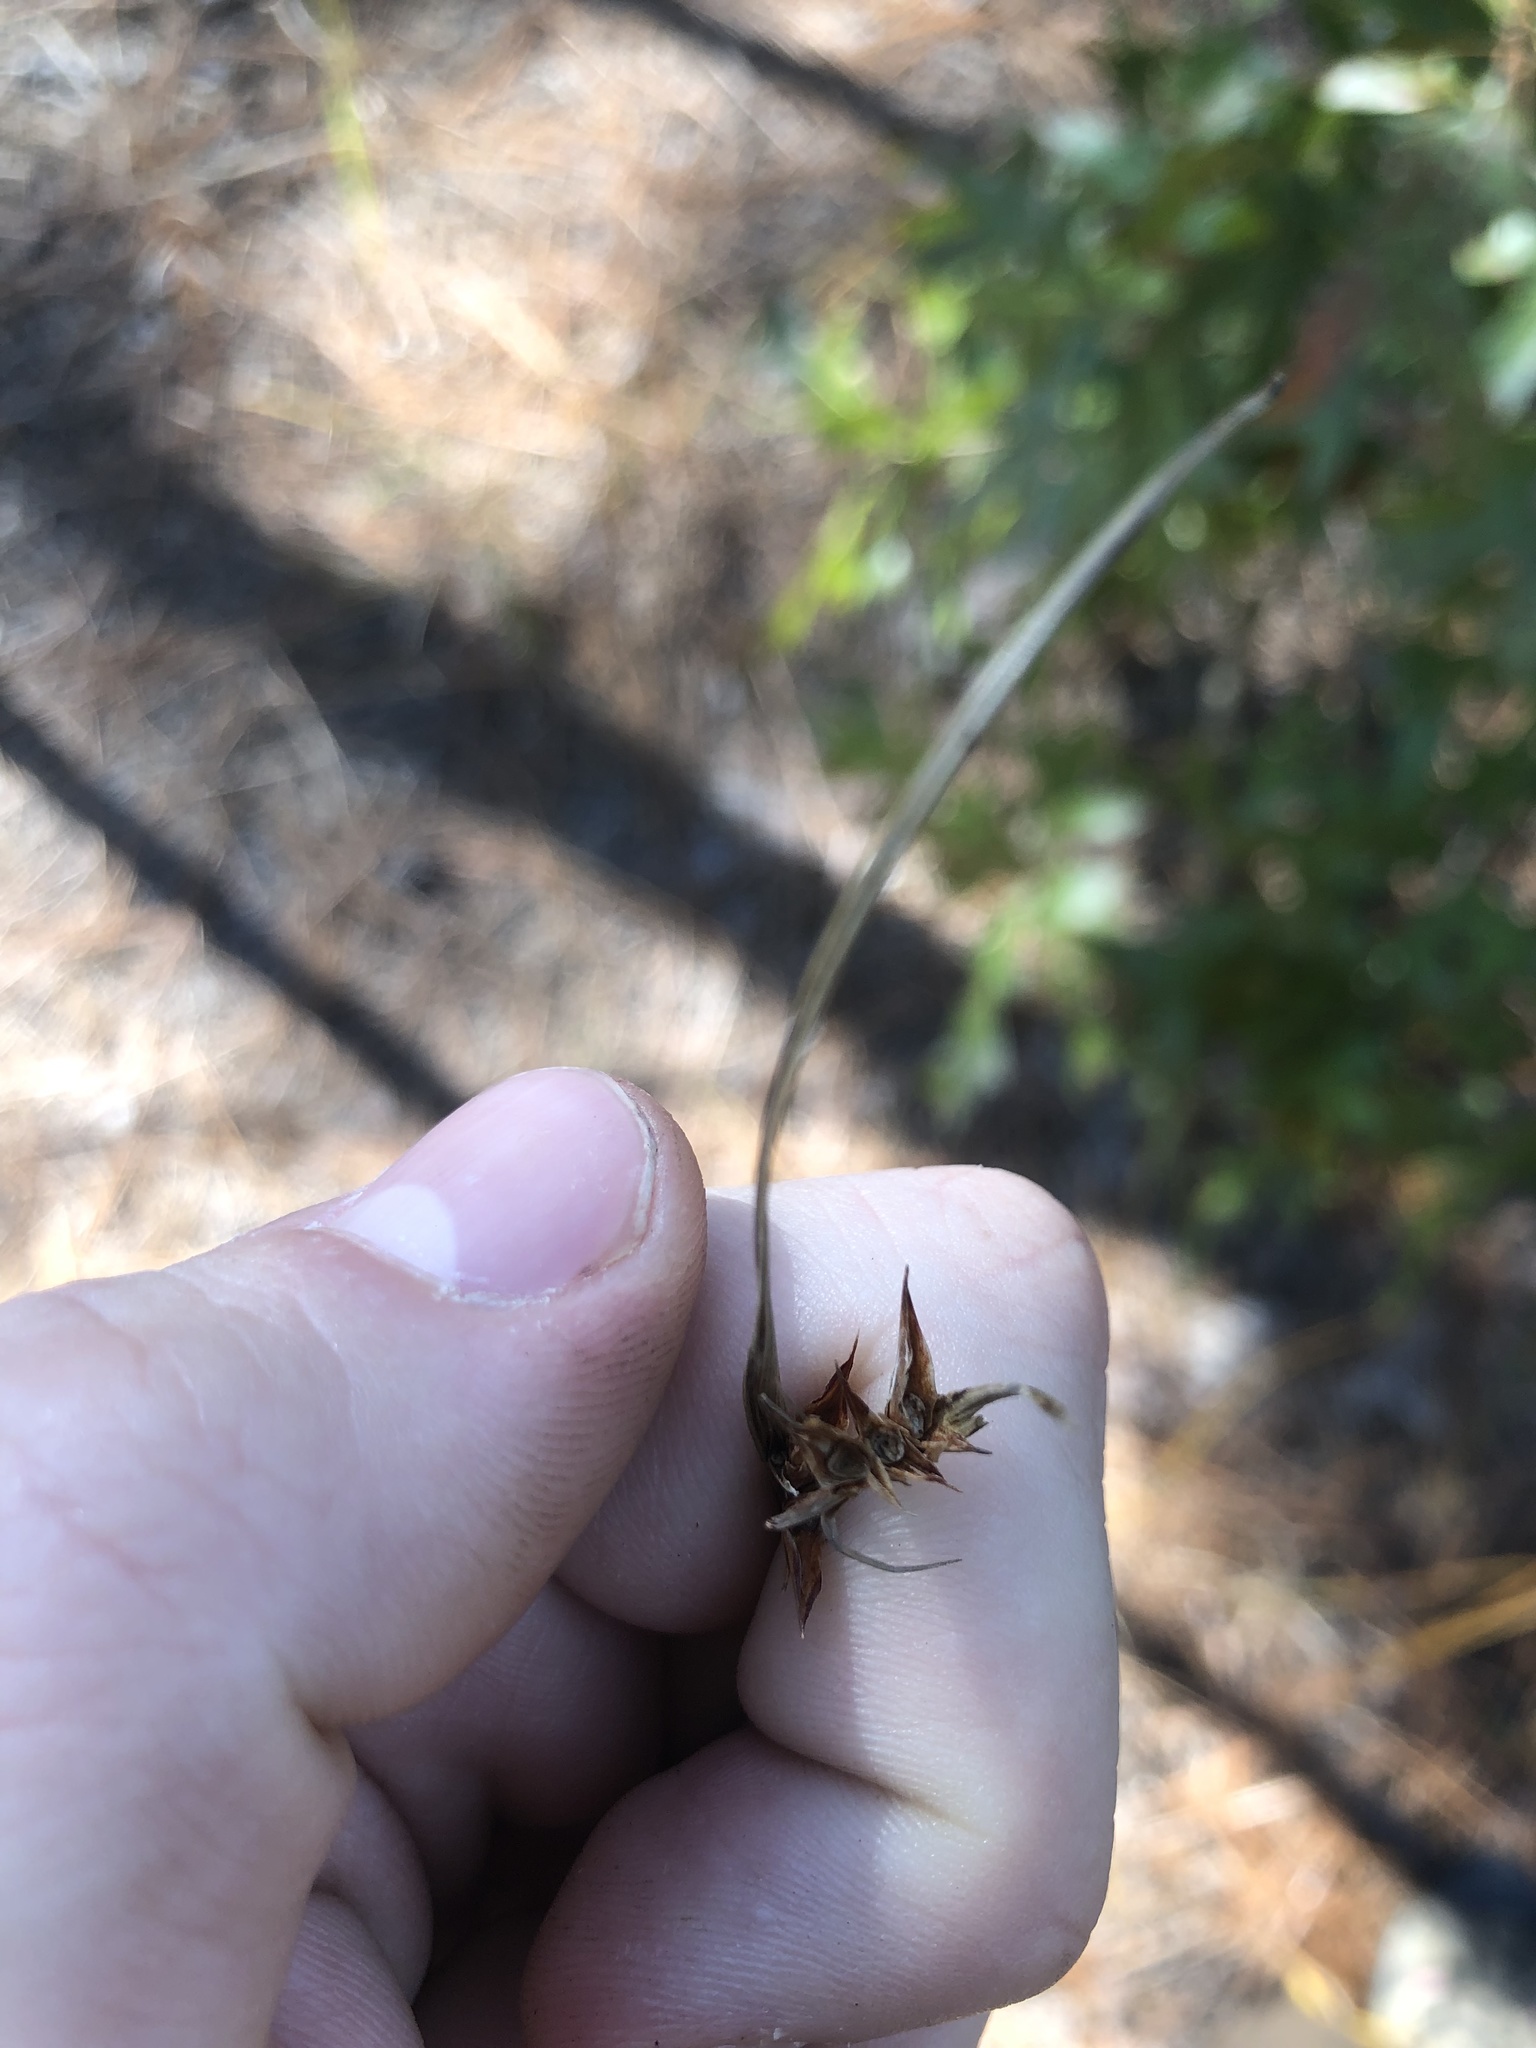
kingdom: Plantae
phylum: Tracheophyta
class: Liliopsida
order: Poales
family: Cyperaceae
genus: Scleria
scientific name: Scleria triglomerata
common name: Whip nutrush
